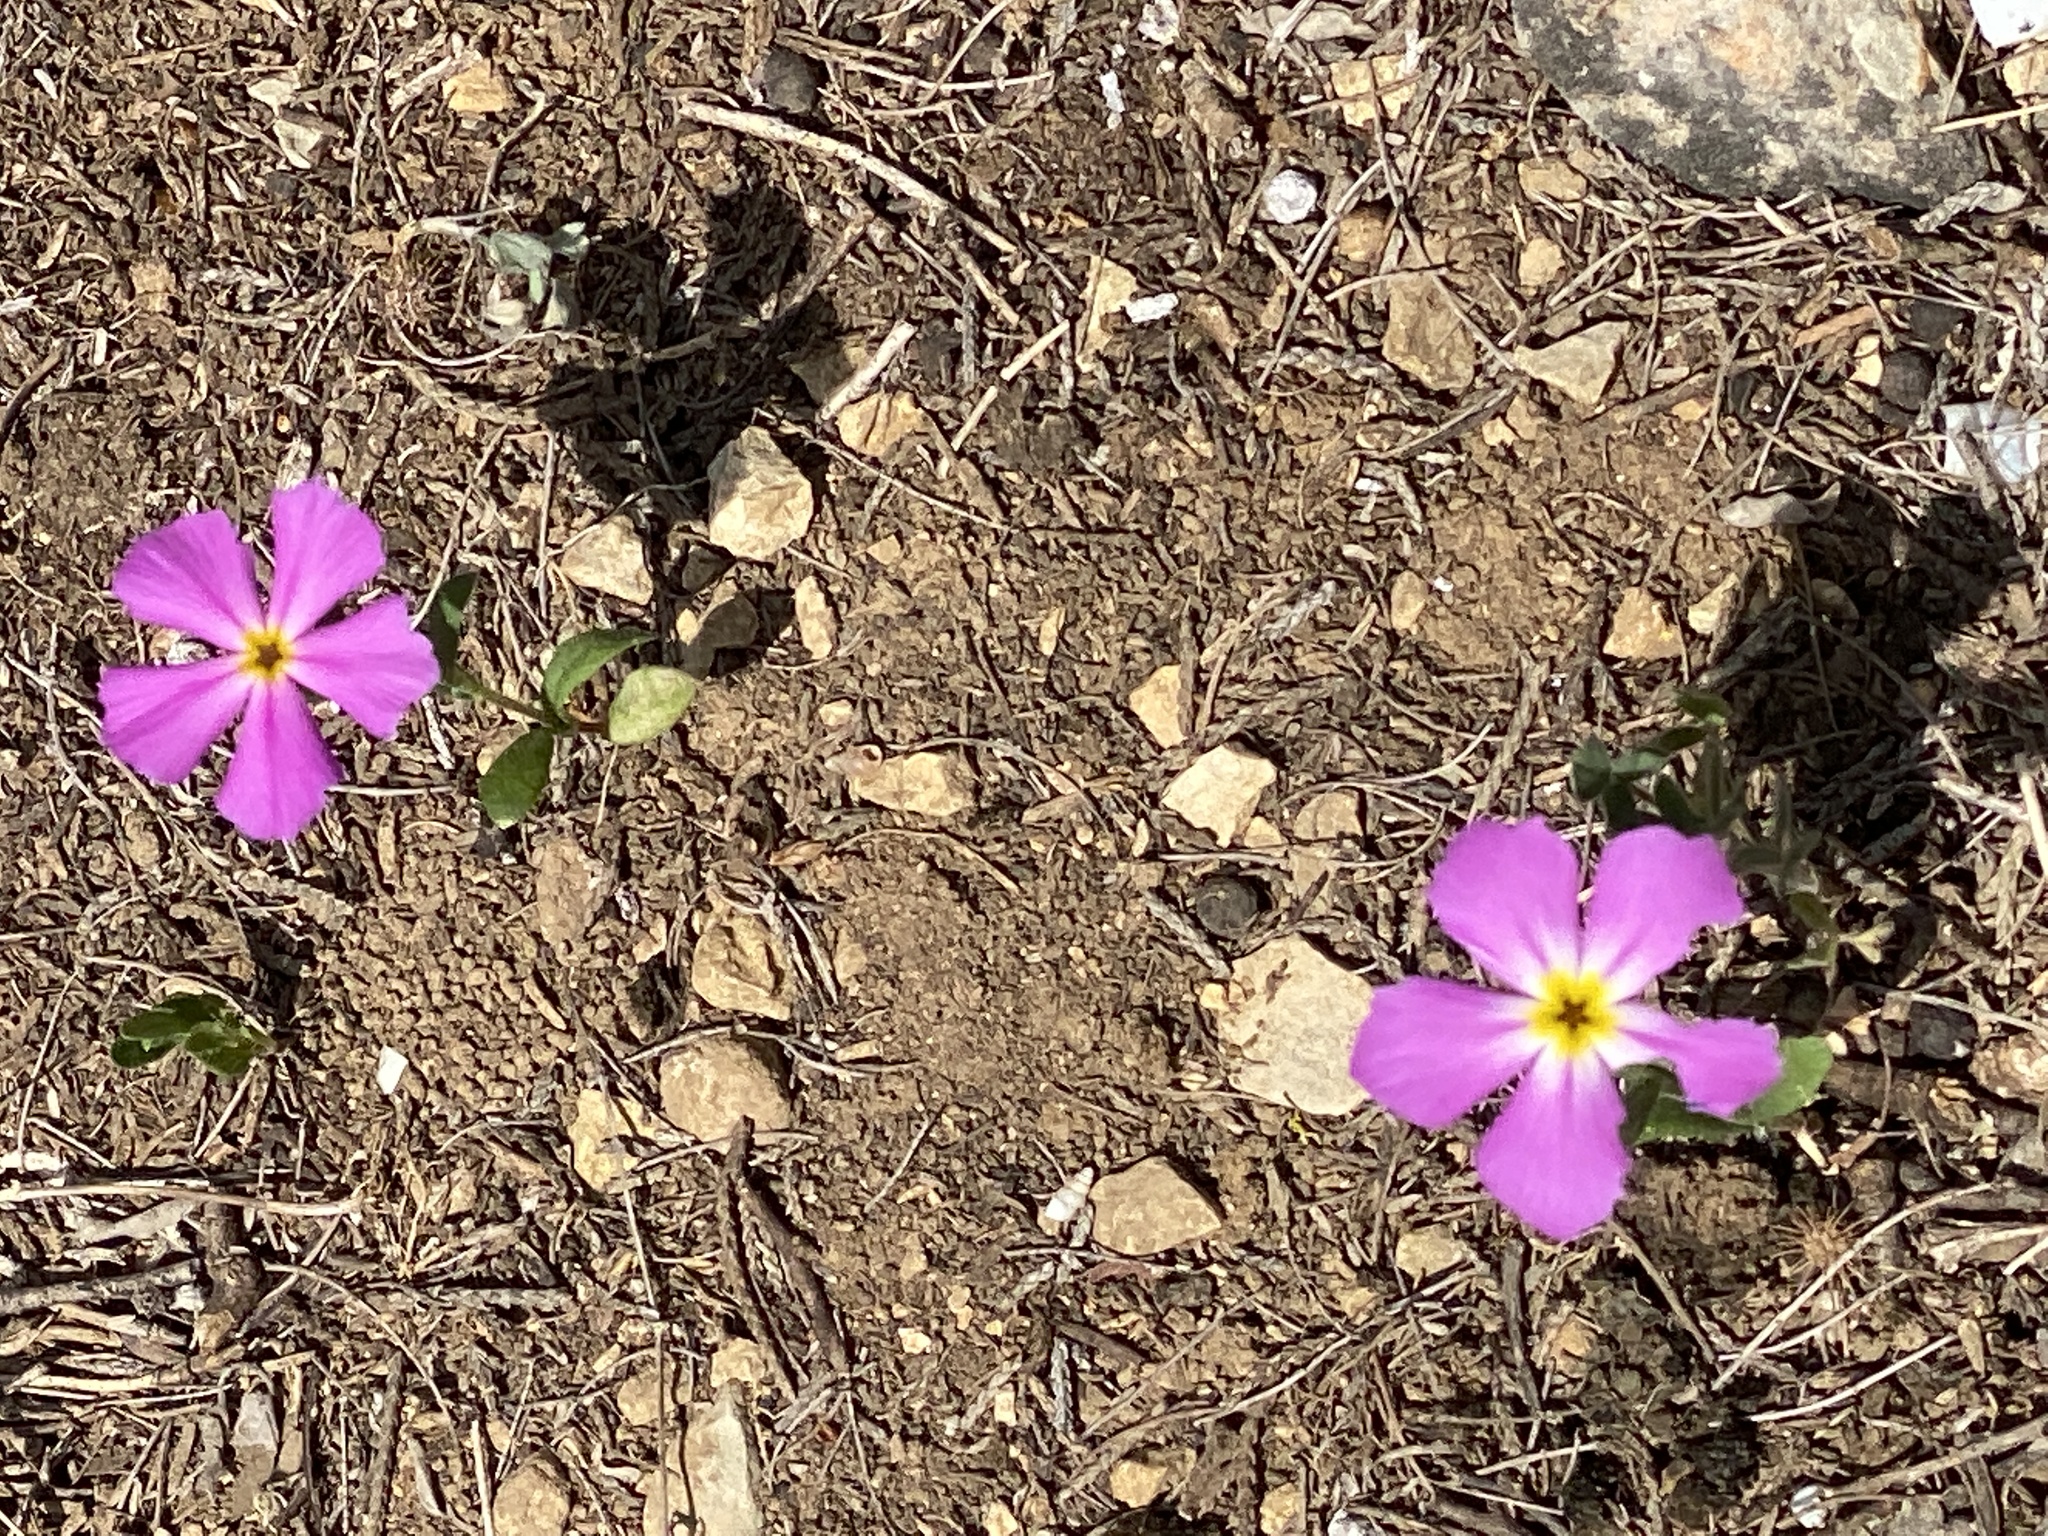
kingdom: Plantae
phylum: Tracheophyta
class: Magnoliopsida
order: Ericales
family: Polemoniaceae
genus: Phlox
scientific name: Phlox roemeriana
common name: Roemer's phlox
